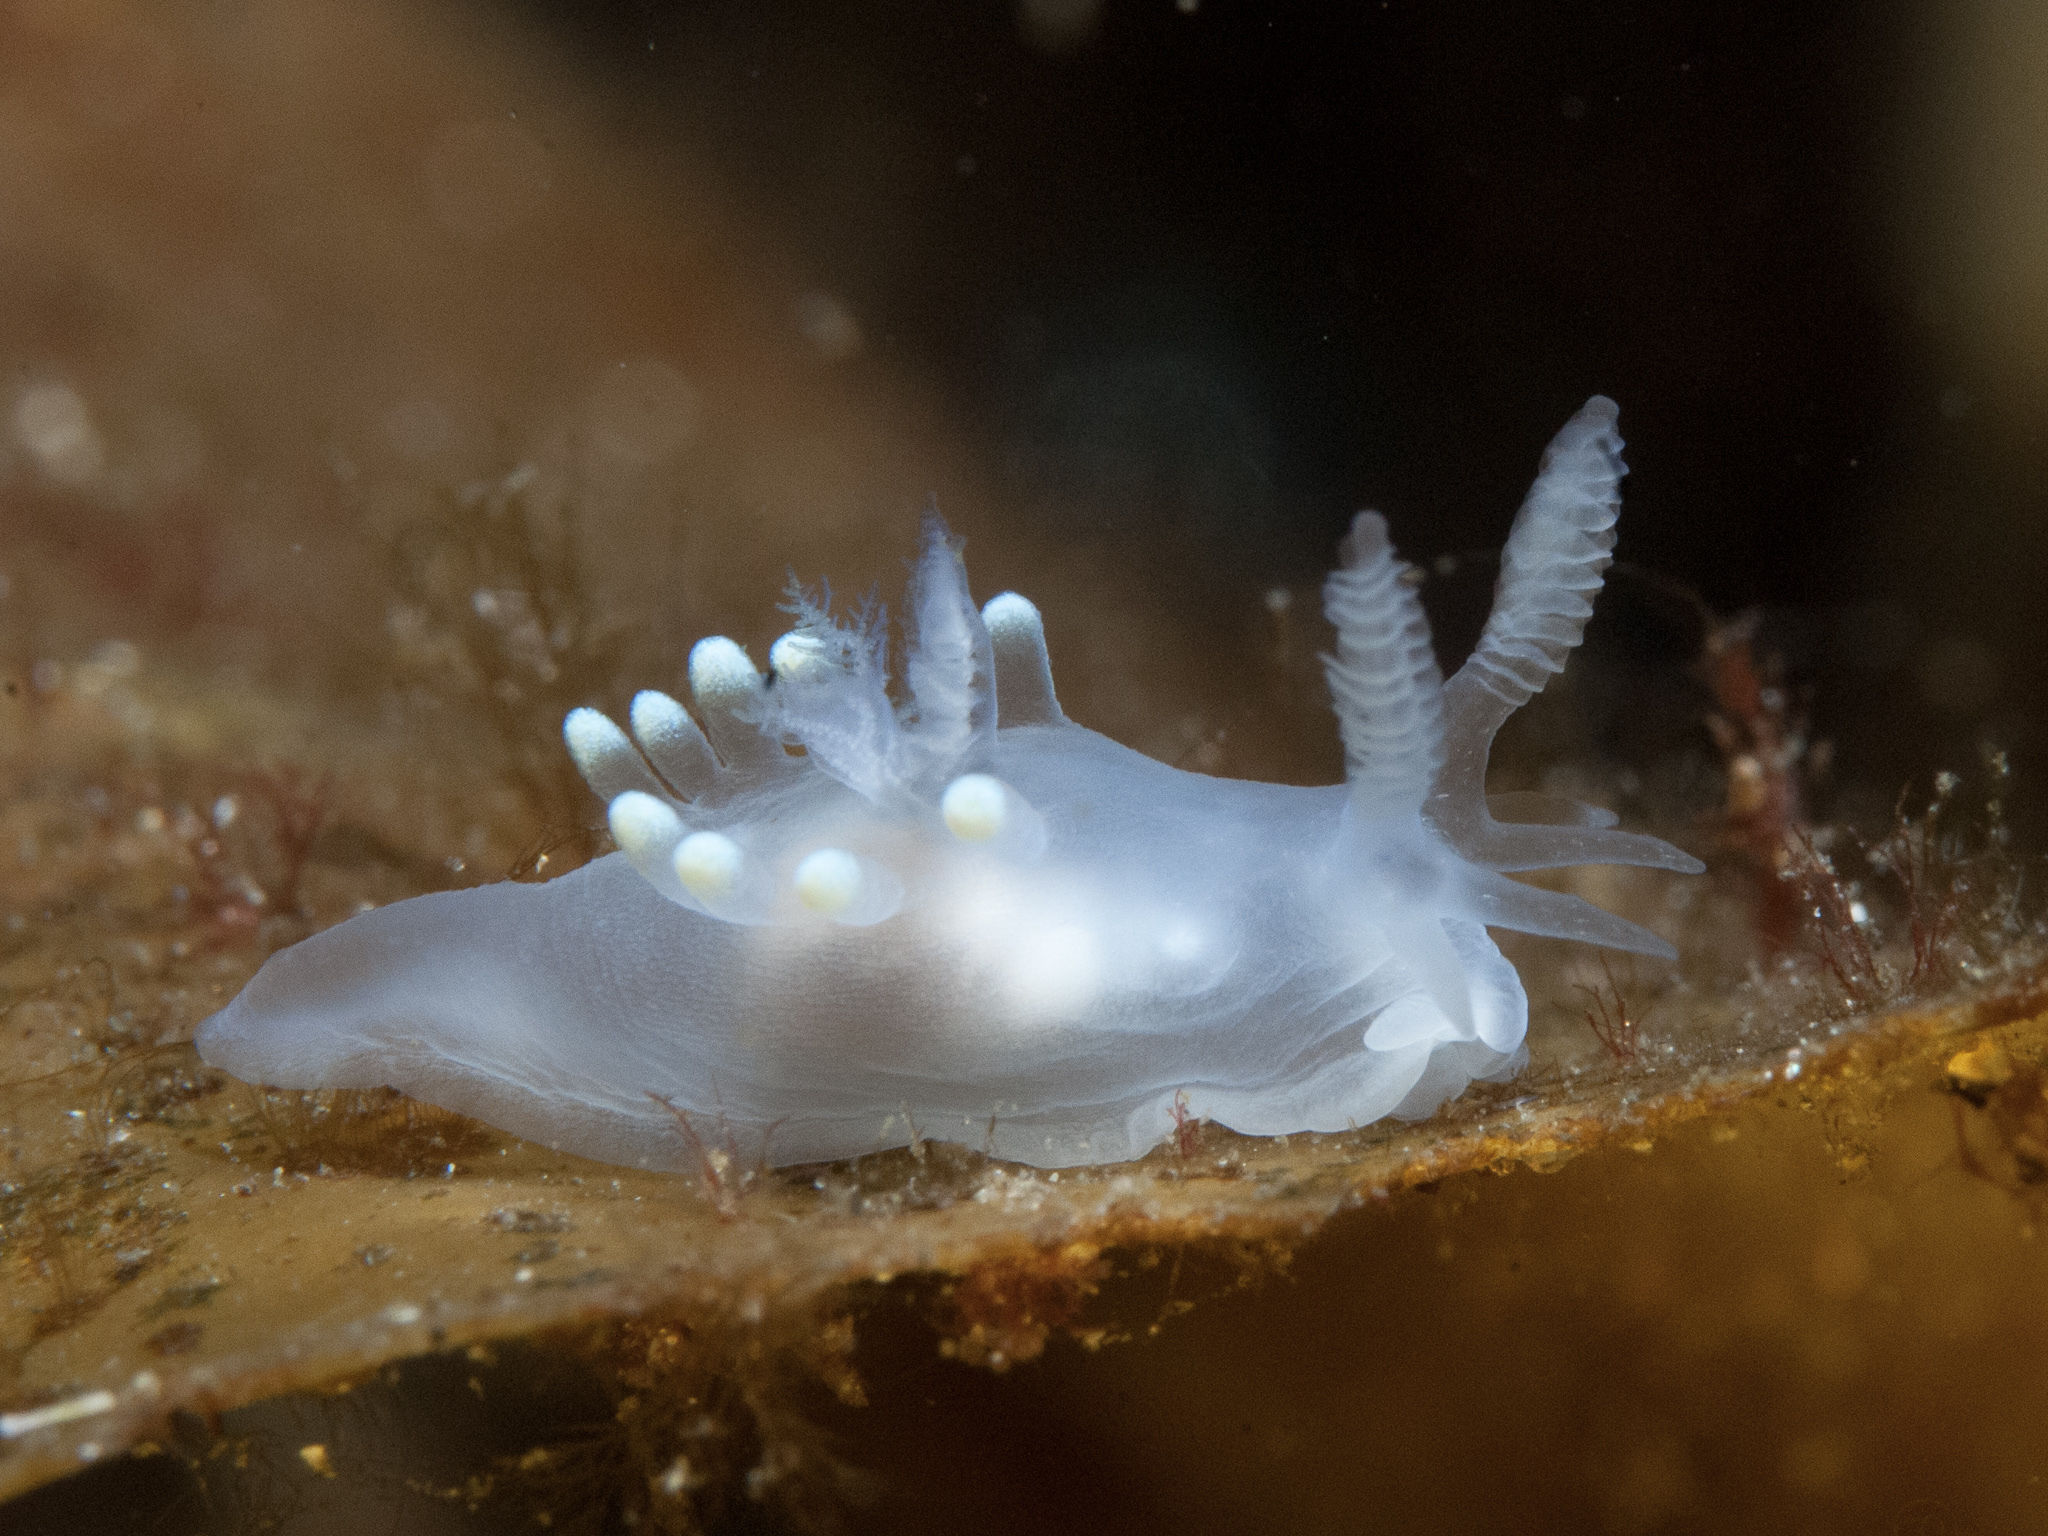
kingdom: Animalia
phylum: Mollusca
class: Gastropoda
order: Nudibranchia
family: Goniodorididae
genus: Ancula
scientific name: Ancula gibbosa
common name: Atlantic ancula
